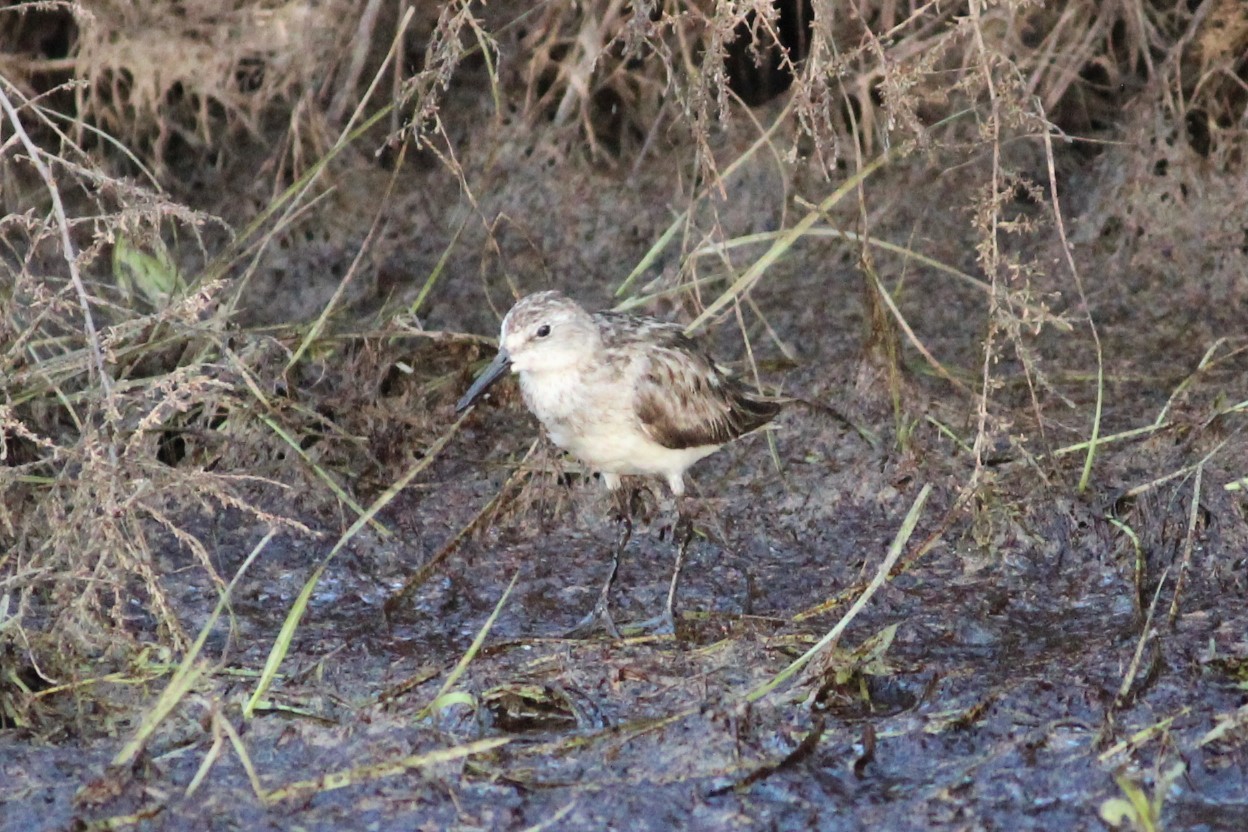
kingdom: Animalia
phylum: Chordata
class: Aves
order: Charadriiformes
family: Scolopacidae
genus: Calidris
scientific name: Calidris pusilla
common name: Semipalmated sandpiper
